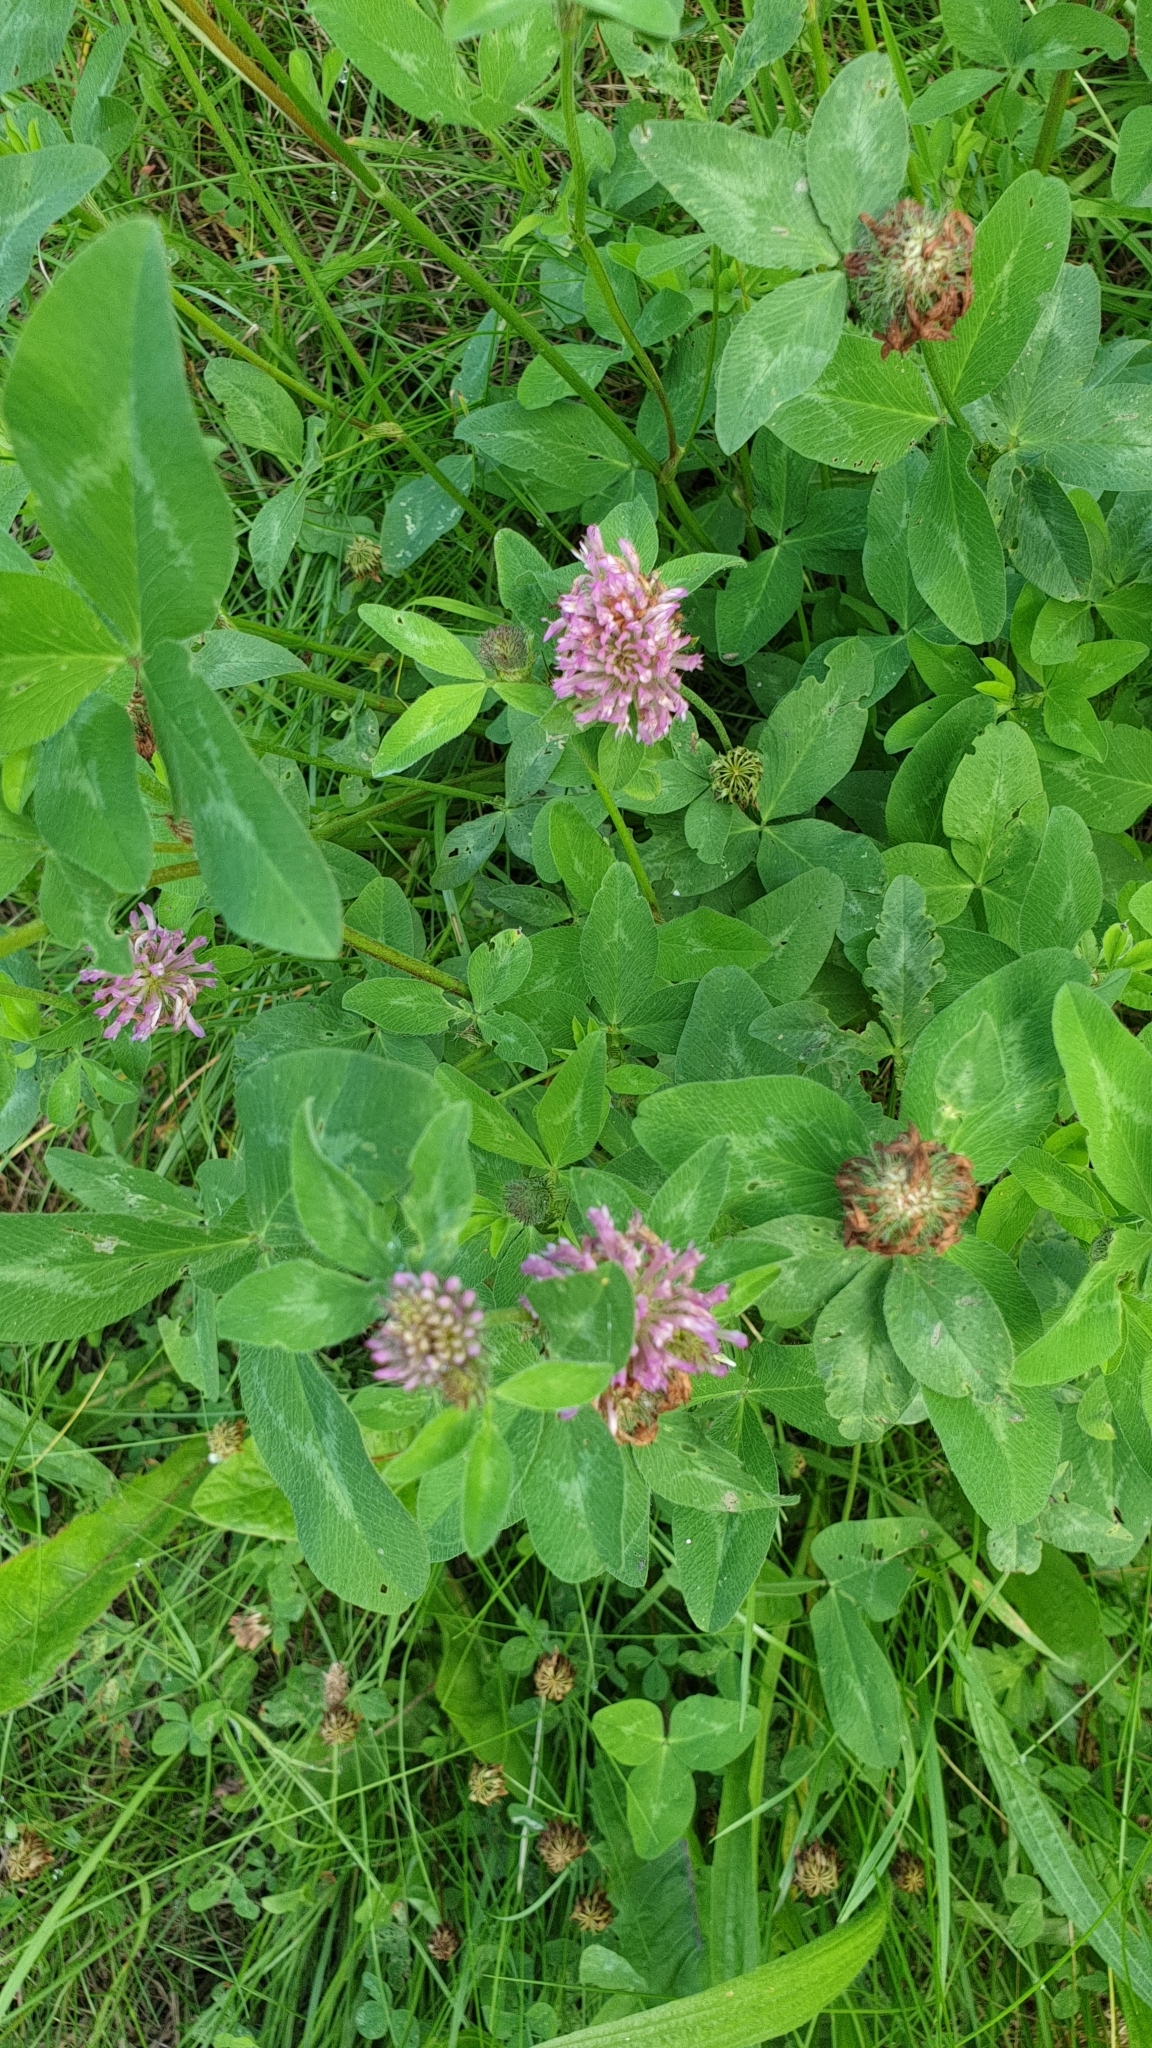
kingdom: Plantae
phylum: Tracheophyta
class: Magnoliopsida
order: Fabales
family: Fabaceae
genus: Trifolium
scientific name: Trifolium pratense
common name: Red clover
